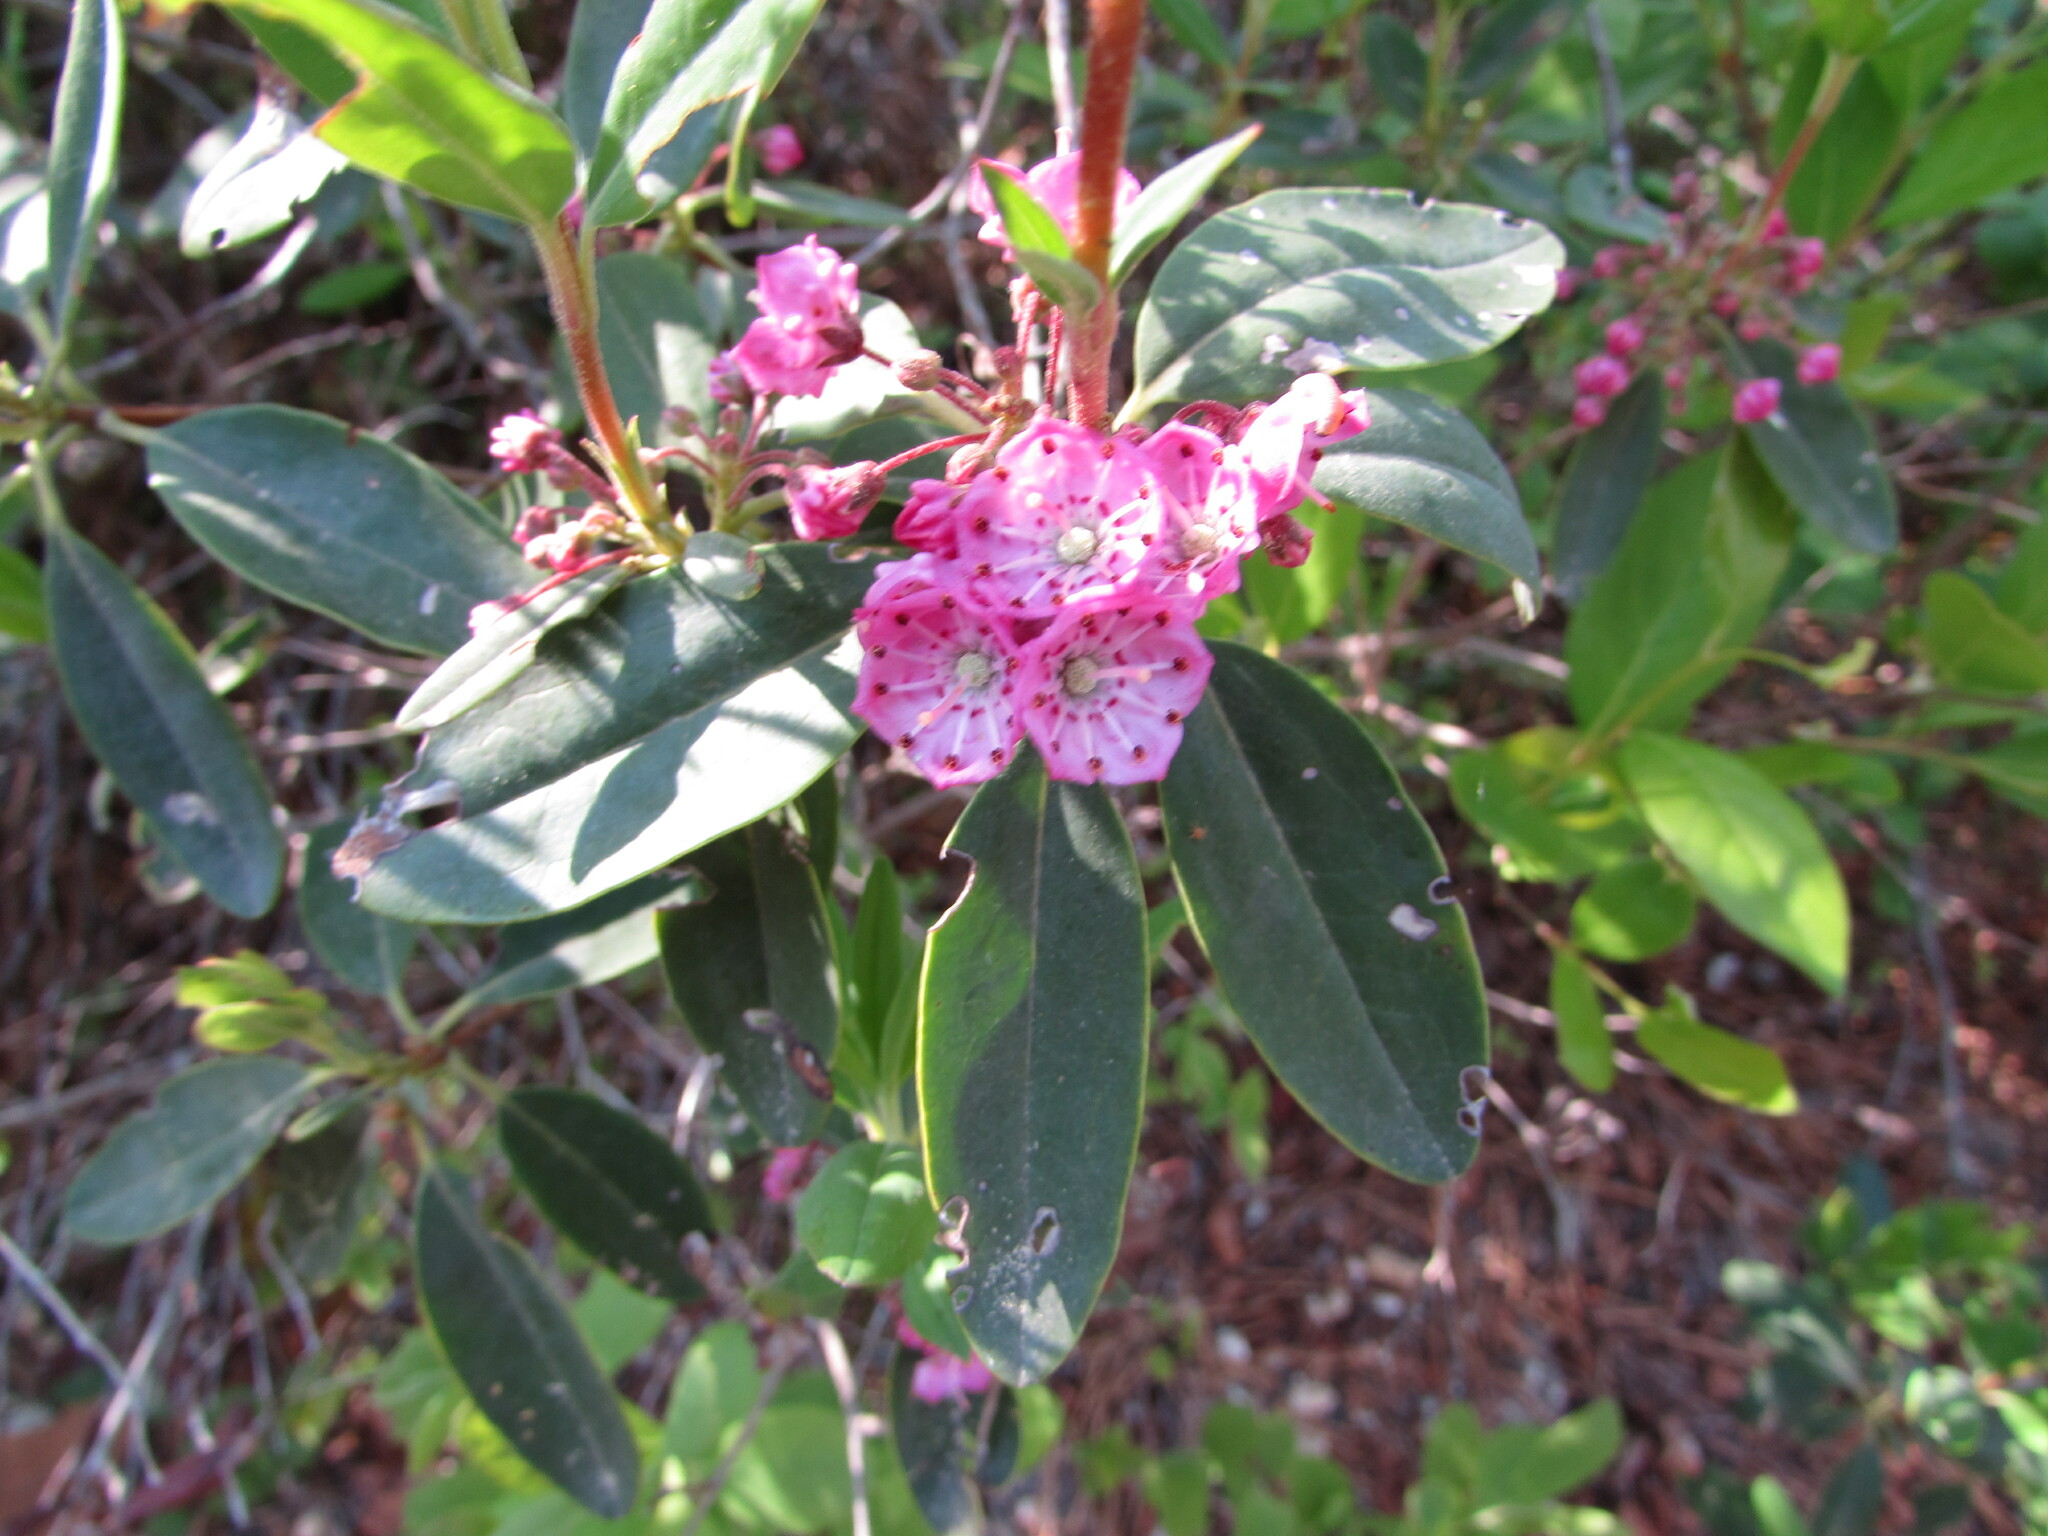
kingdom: Plantae
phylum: Tracheophyta
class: Magnoliopsida
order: Ericales
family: Ericaceae
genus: Kalmia
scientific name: Kalmia angustifolia
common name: Sheep-laurel
